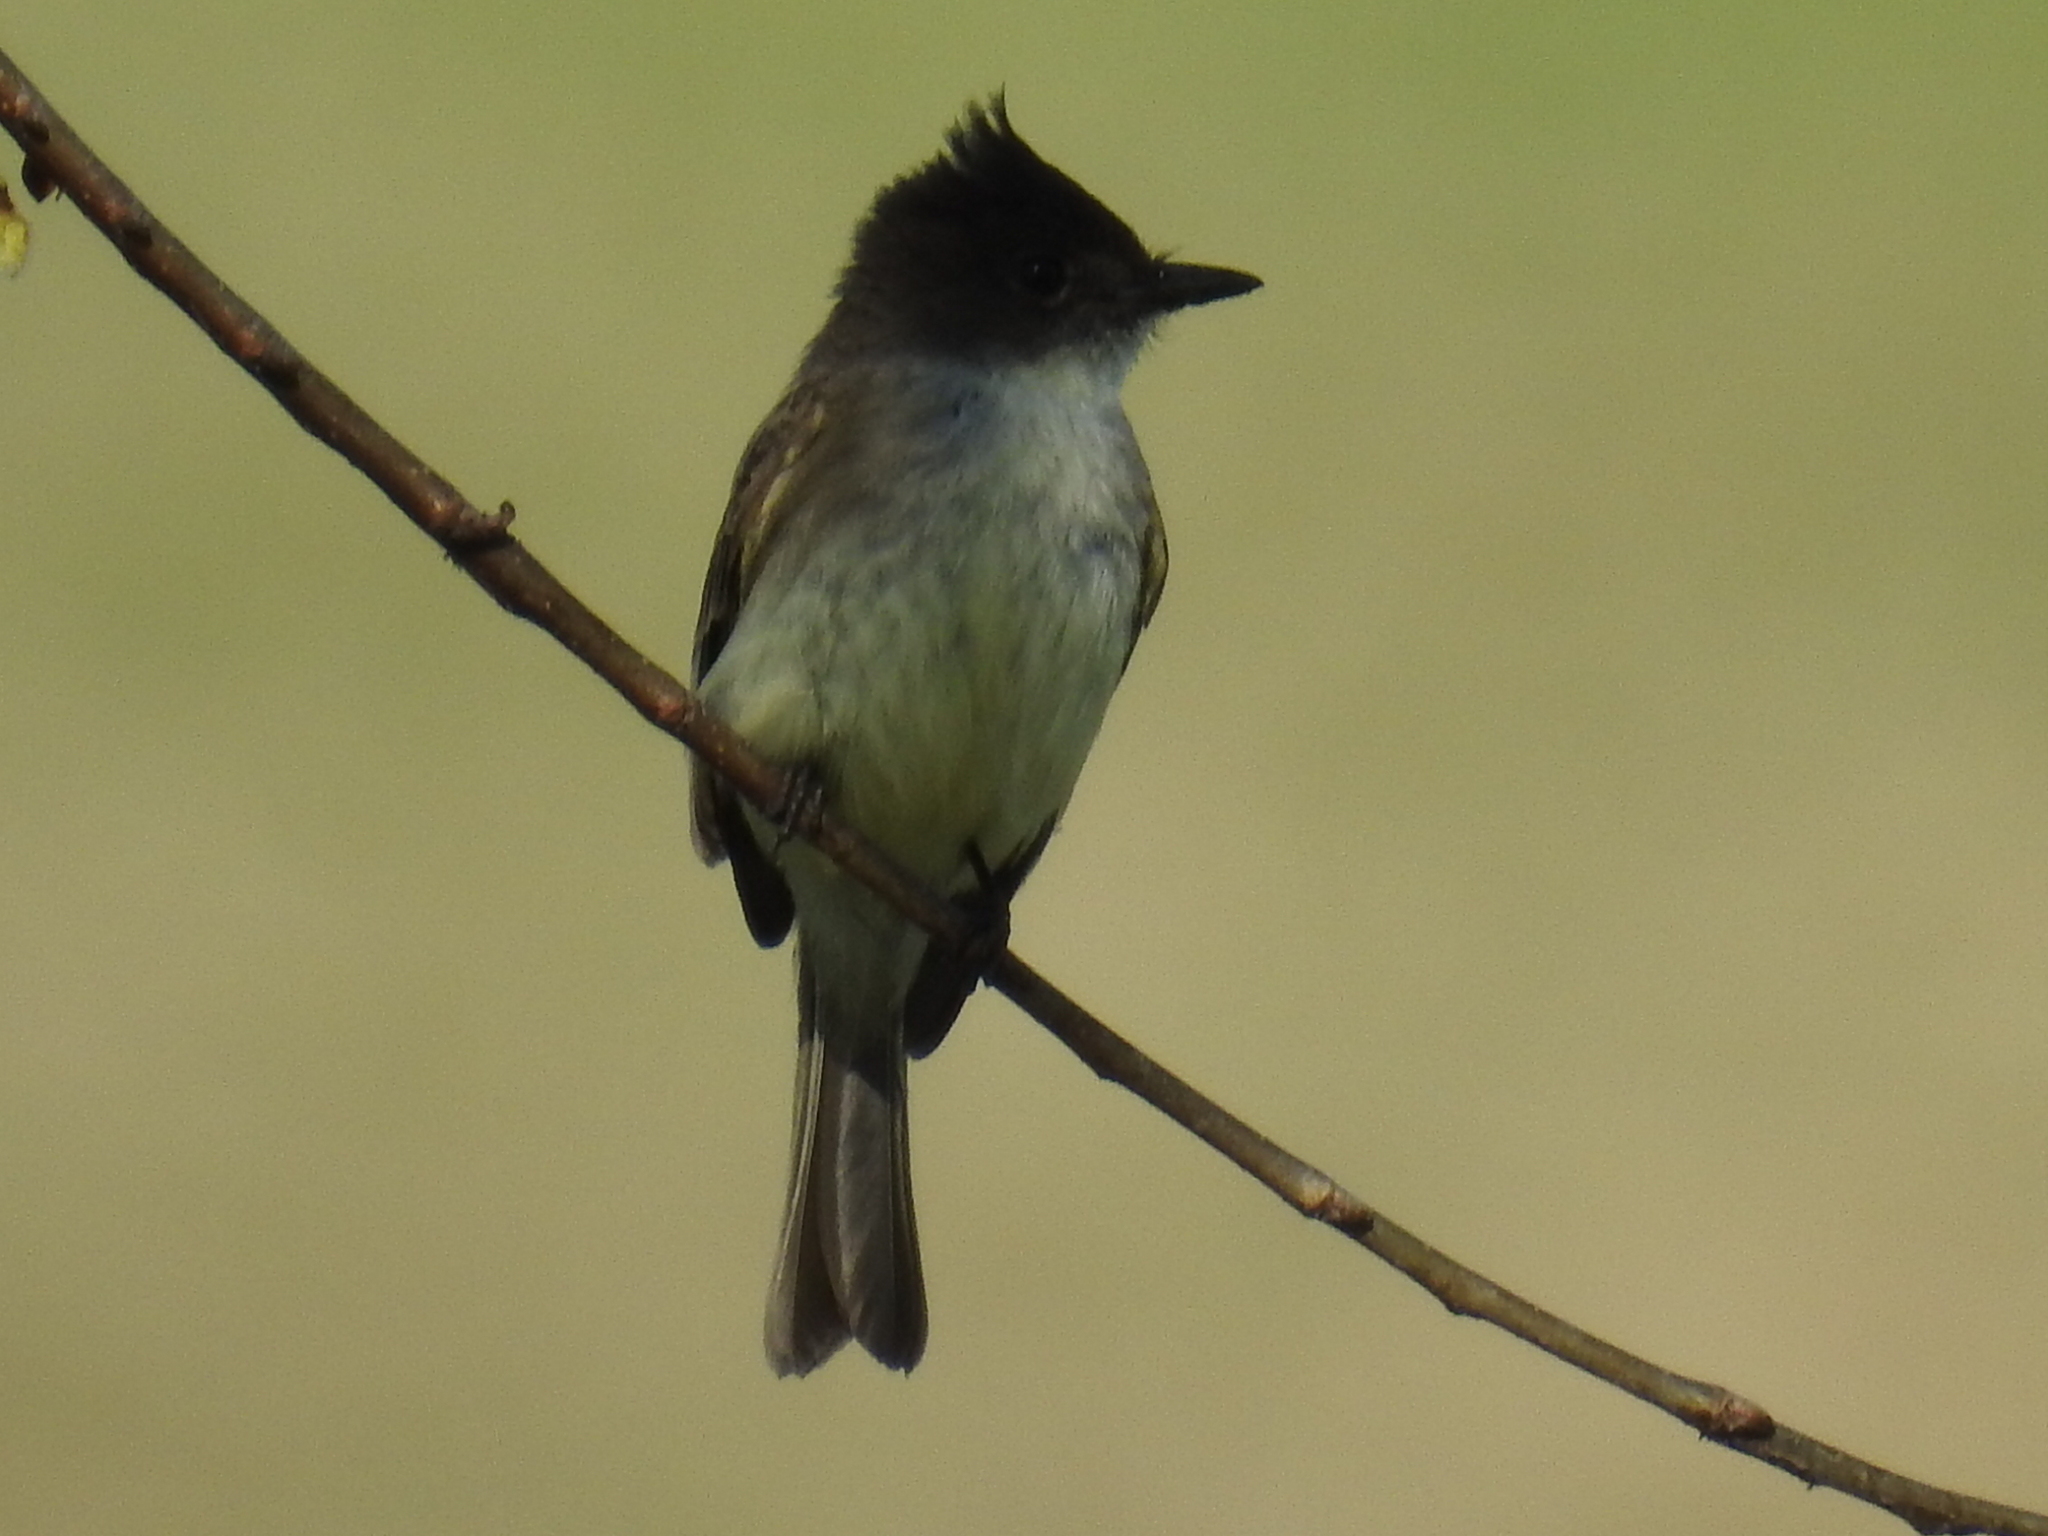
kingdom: Animalia
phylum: Chordata
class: Aves
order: Passeriformes
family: Tyrannidae
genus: Sayornis
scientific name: Sayornis phoebe
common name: Eastern phoebe
